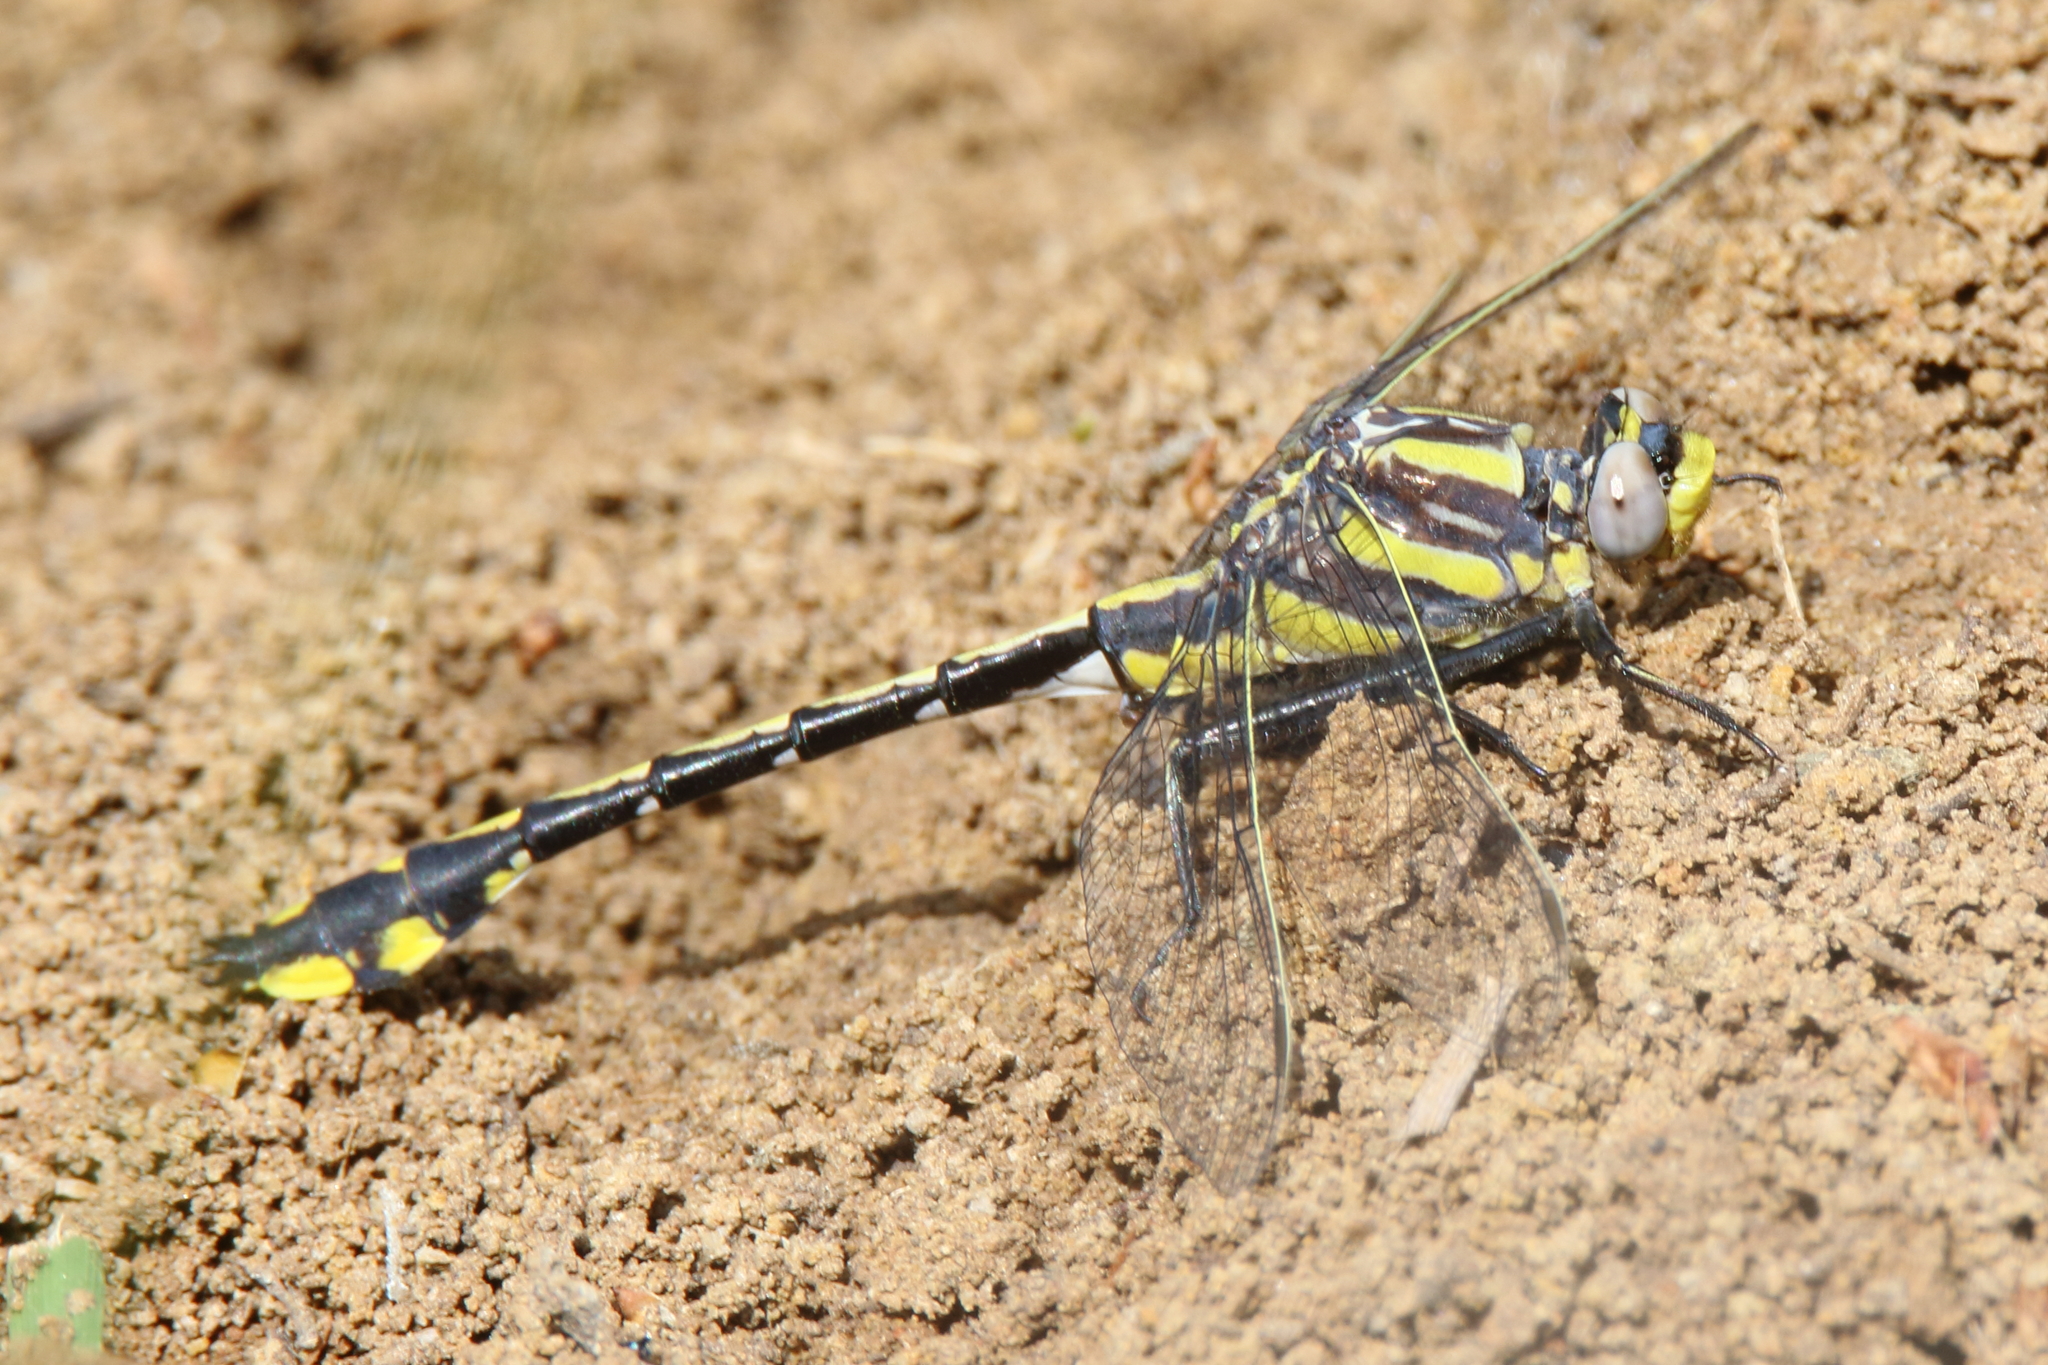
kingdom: Animalia
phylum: Arthropoda
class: Insecta
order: Odonata
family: Gomphidae
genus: Gomphurus
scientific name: Gomphurus externus
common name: Plains clubtail
